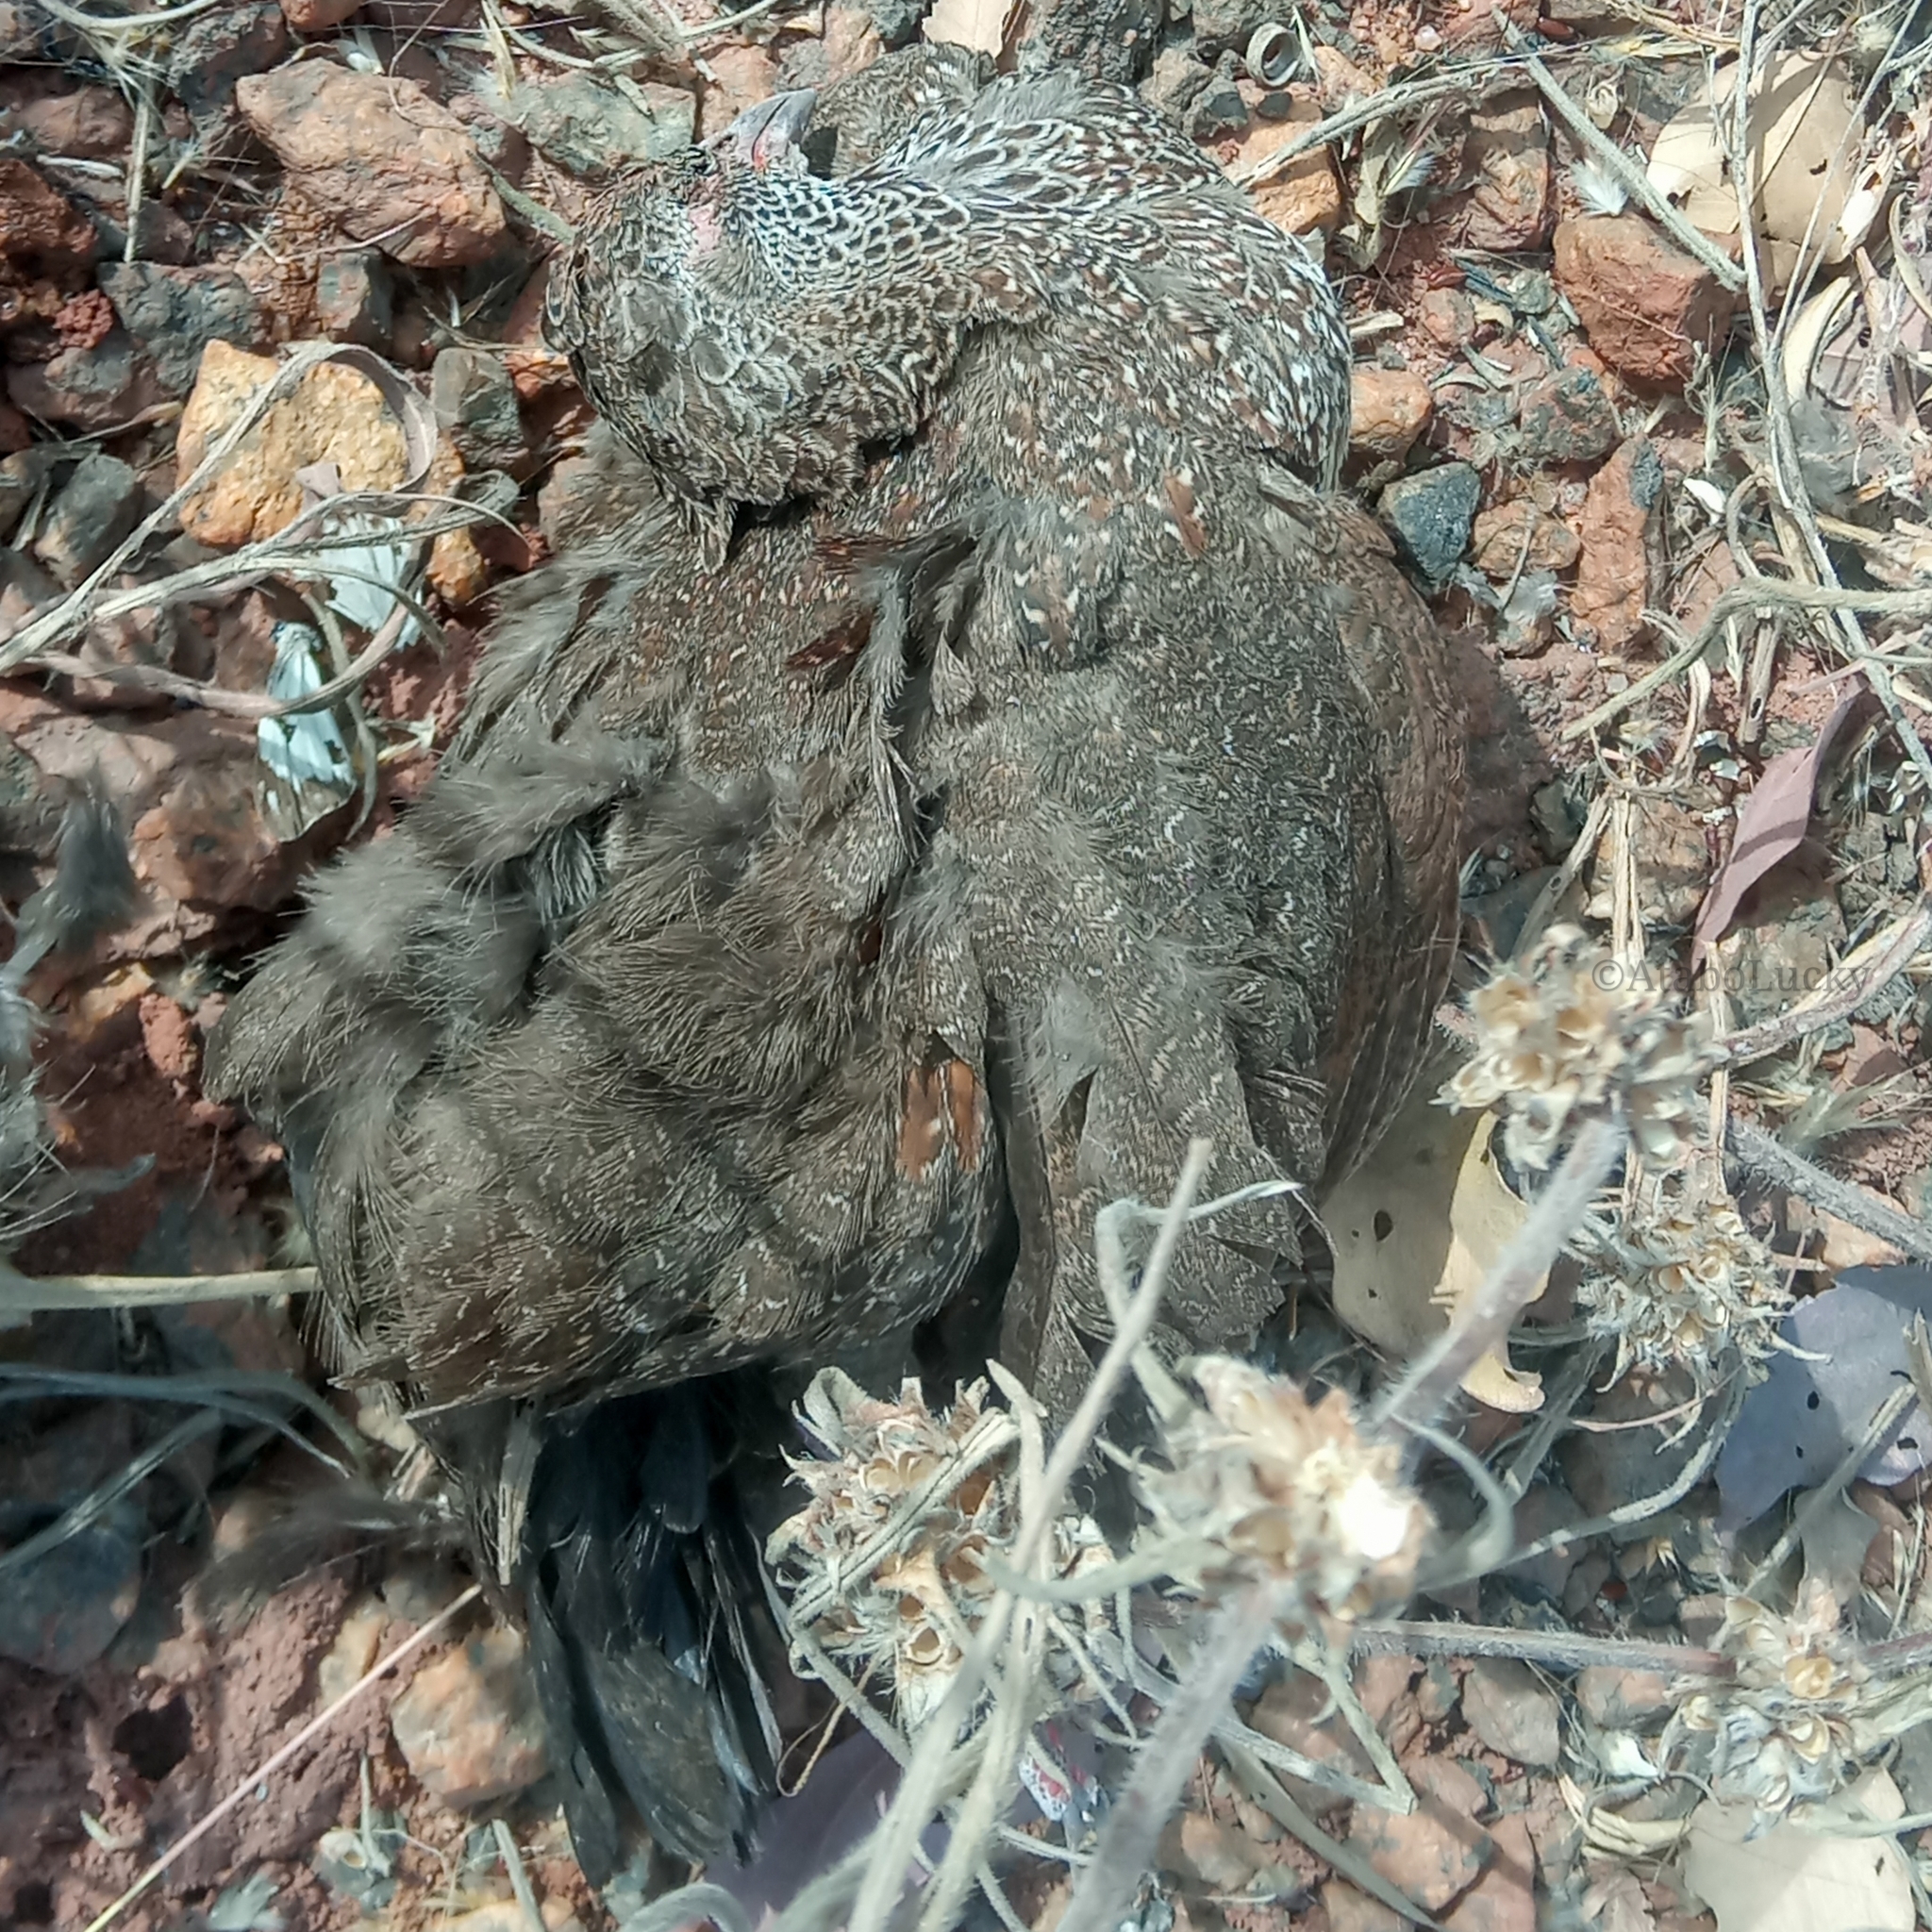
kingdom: Animalia
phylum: Chordata
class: Aves
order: Galliformes
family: Odontophoridae
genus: Ptilopachus
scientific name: Ptilopachus petrosus
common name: Stone partridge
